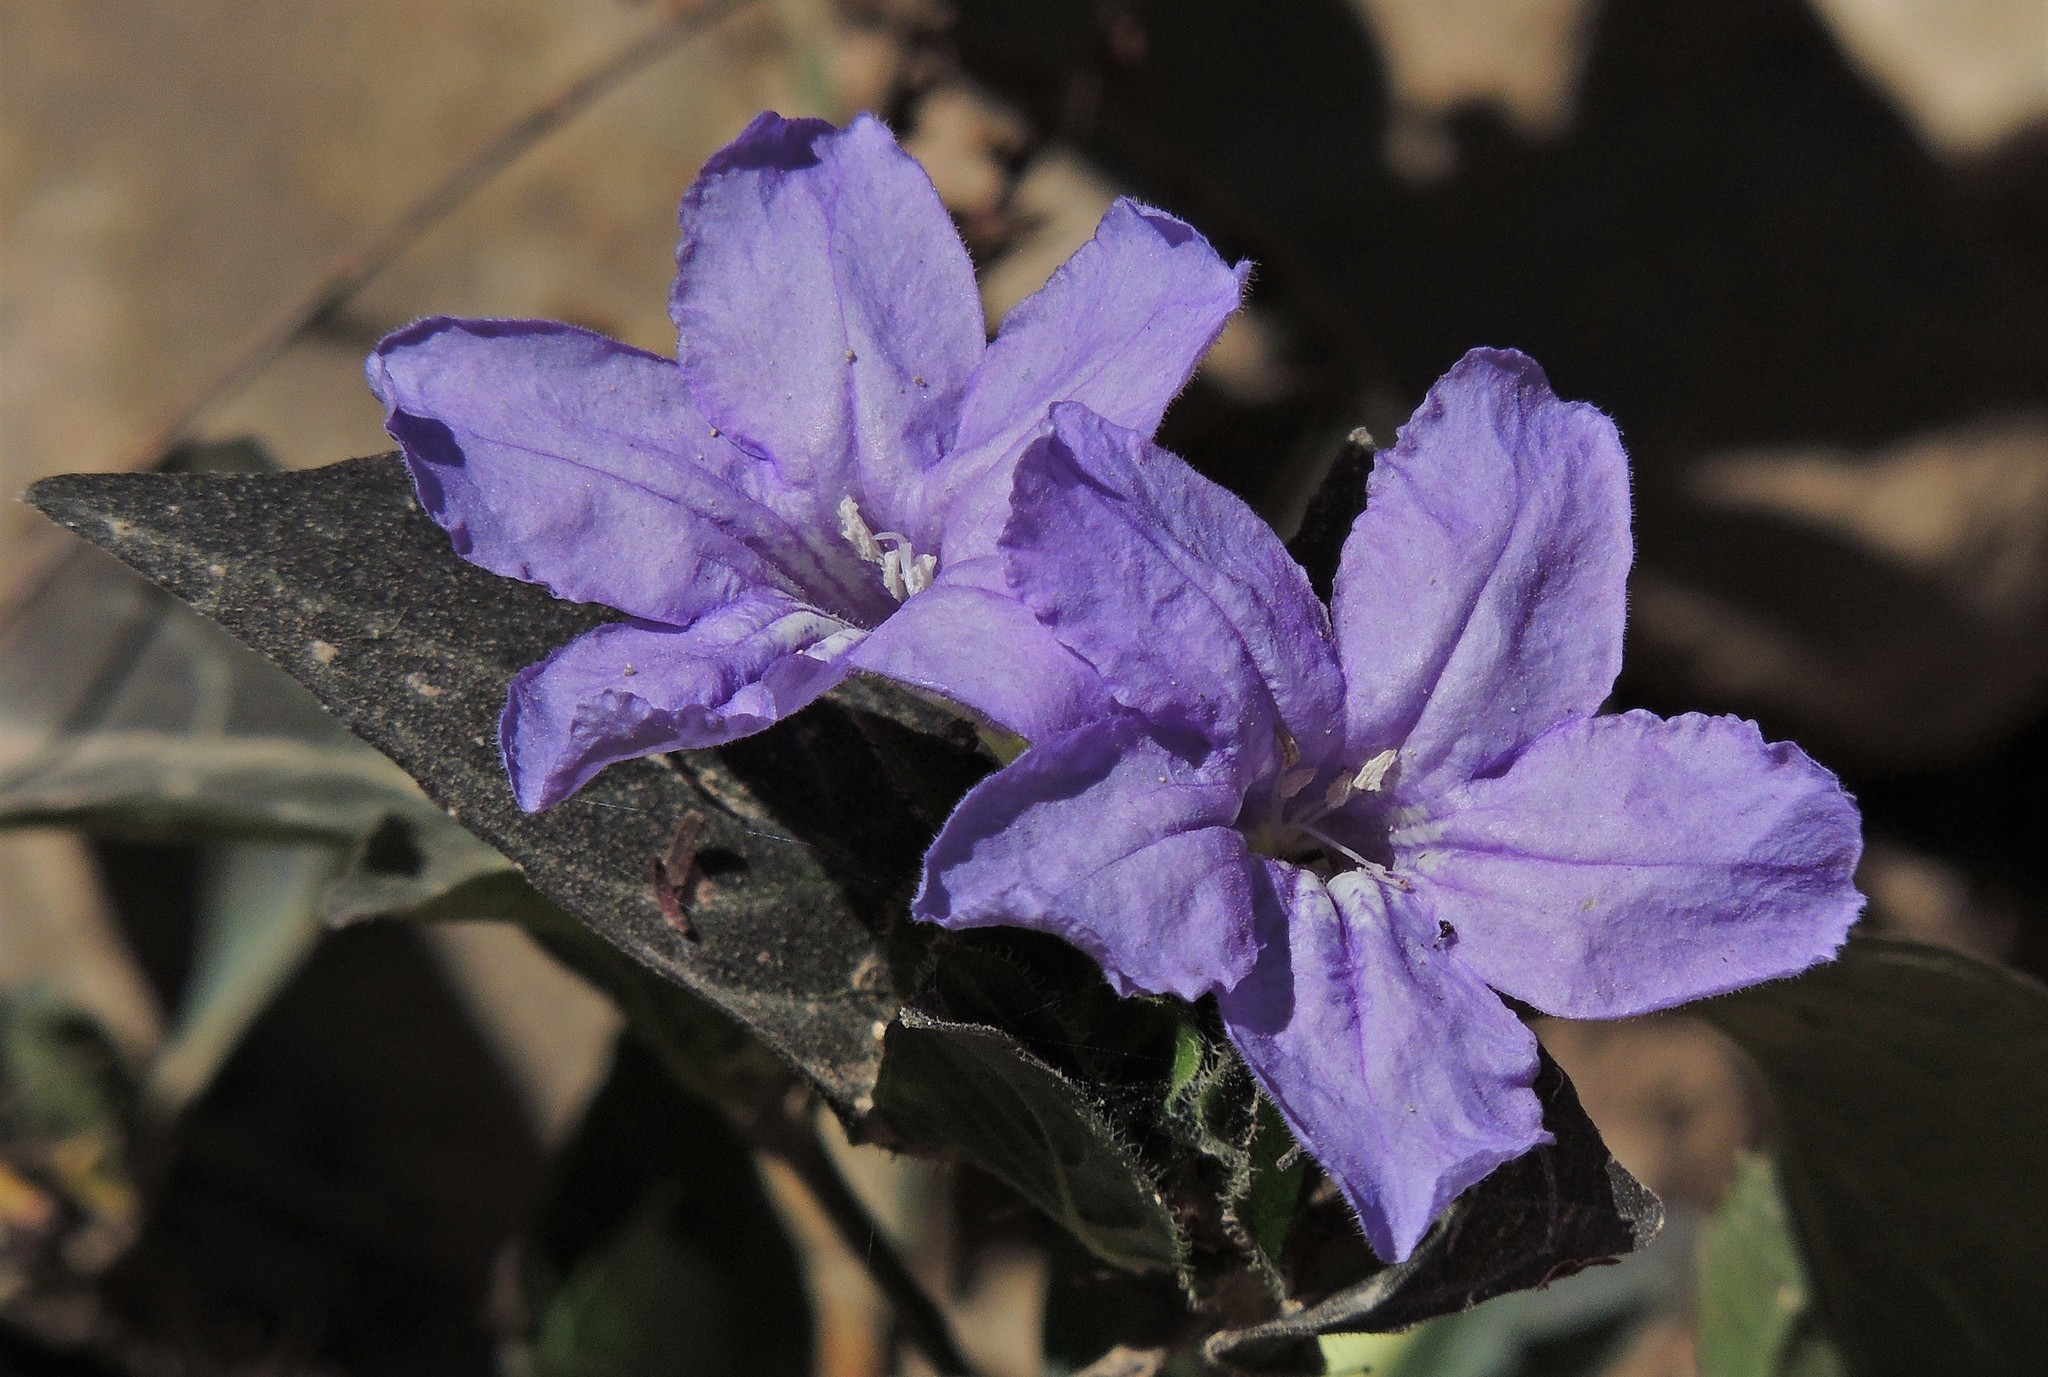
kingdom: Plantae
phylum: Tracheophyta
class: Magnoliopsida
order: Lamiales
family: Acanthaceae
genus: Ruellia
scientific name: Ruellia erythropus
